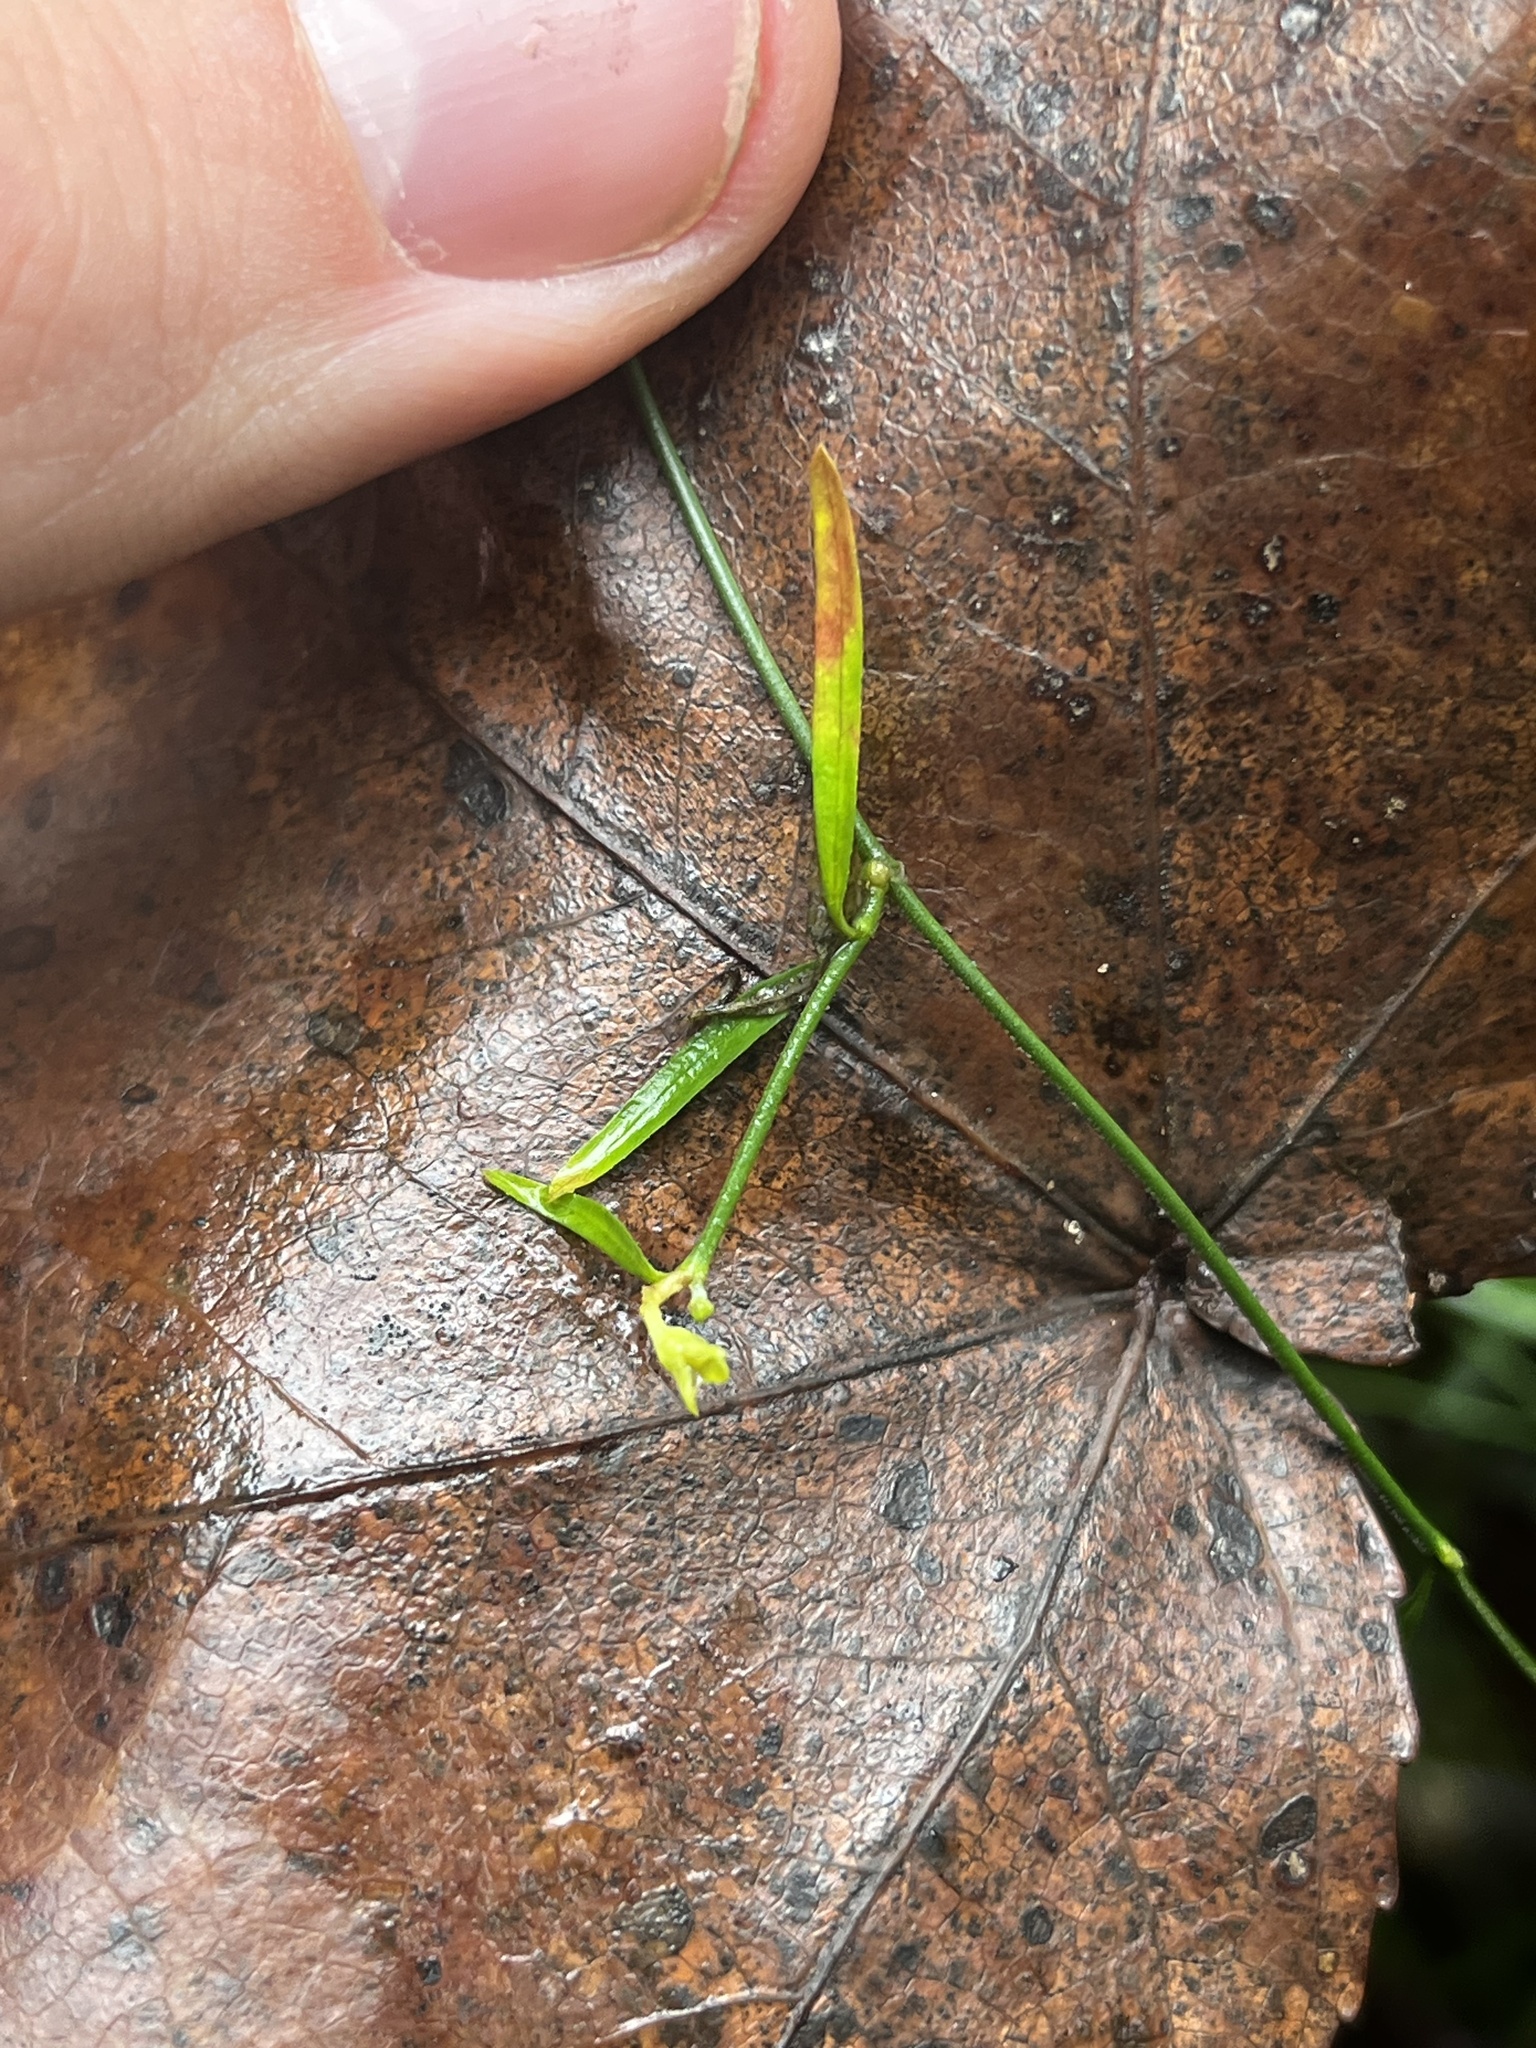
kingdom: Plantae
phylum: Tracheophyta
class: Magnoliopsida
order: Gentianales
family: Apocynaceae
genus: Orthosia
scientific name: Orthosia scoparia
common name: Leafless swallow-wort
